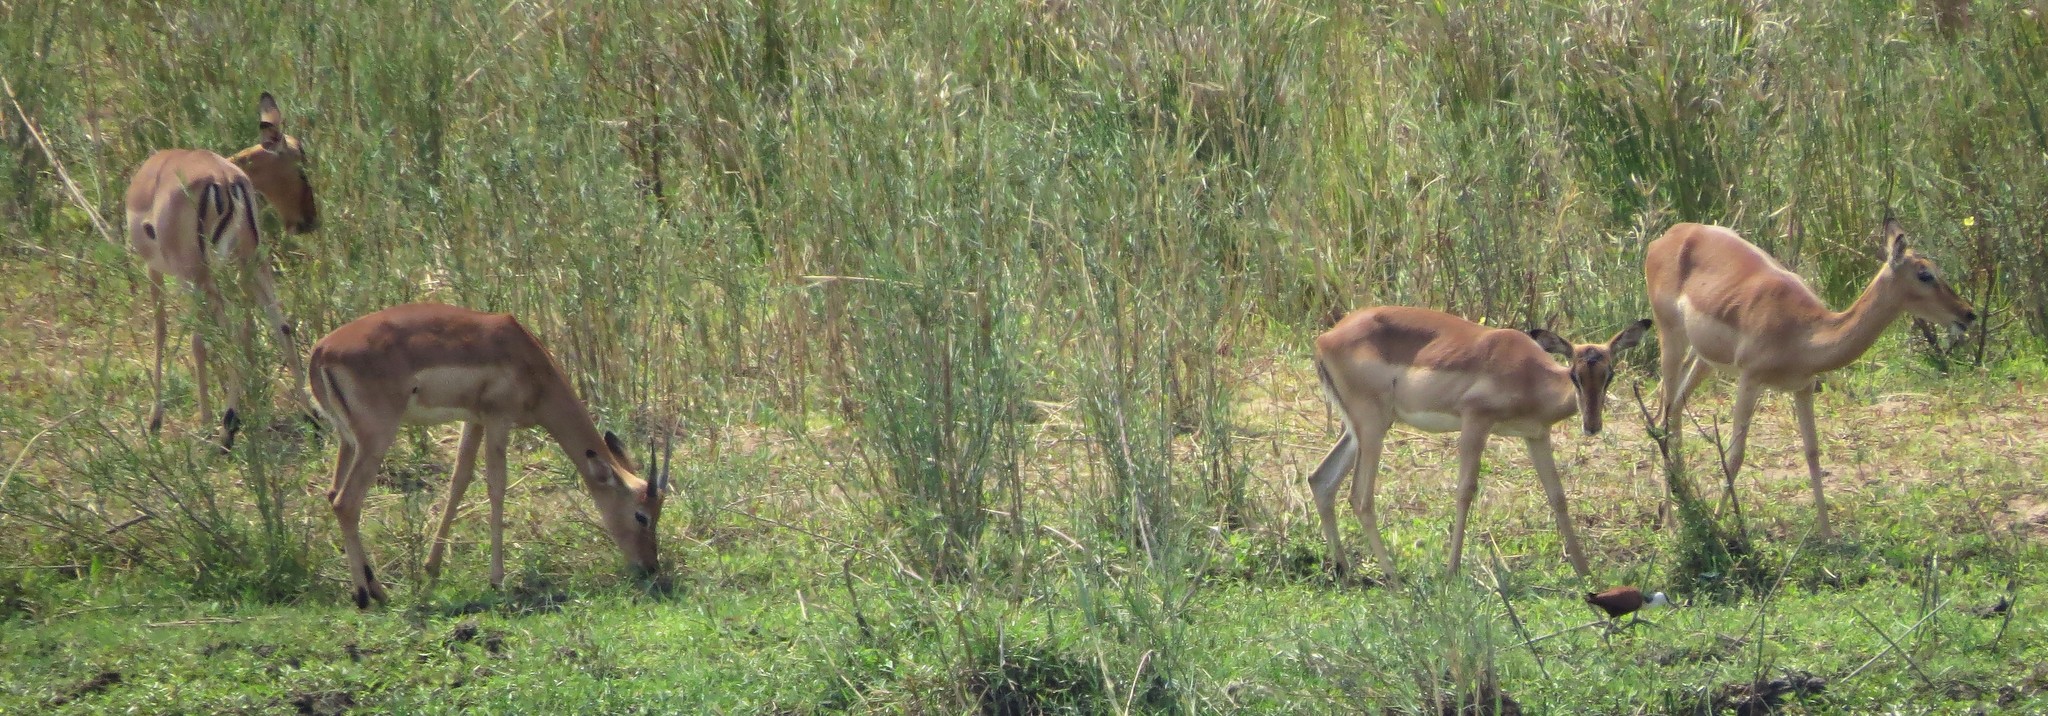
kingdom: Animalia
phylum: Chordata
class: Mammalia
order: Artiodactyla
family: Bovidae
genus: Aepyceros
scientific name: Aepyceros melampus
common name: Impala
